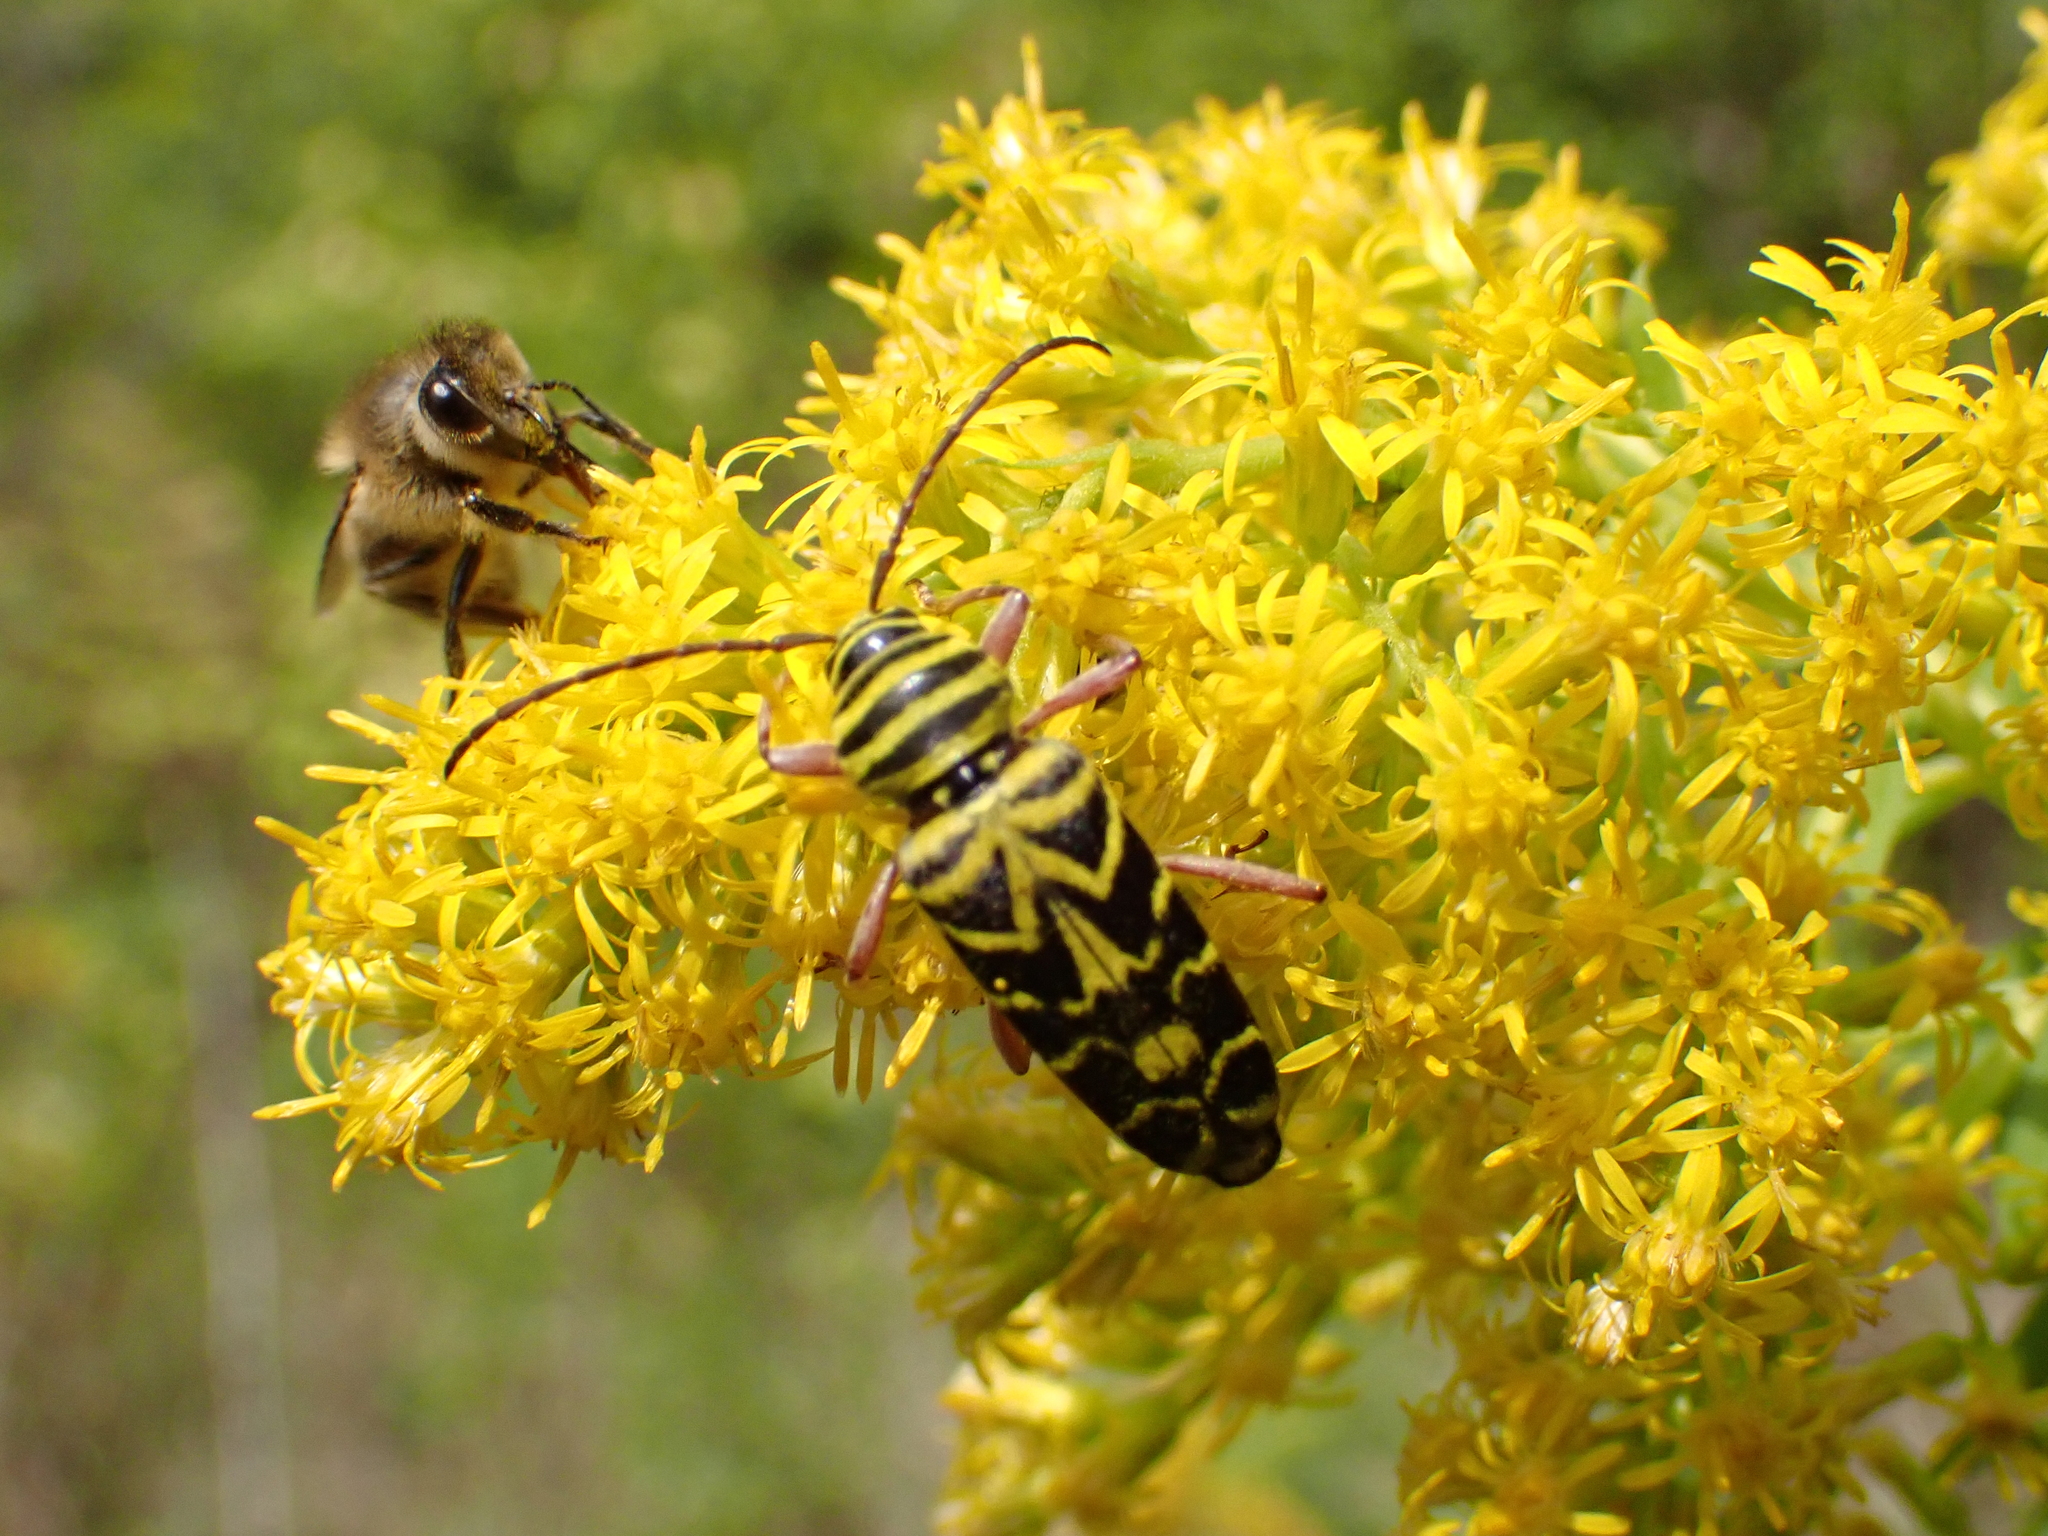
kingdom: Animalia
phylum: Arthropoda
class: Insecta
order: Coleoptera
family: Cerambycidae
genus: Megacyllene
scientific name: Megacyllene robiniae
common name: Locust borer
